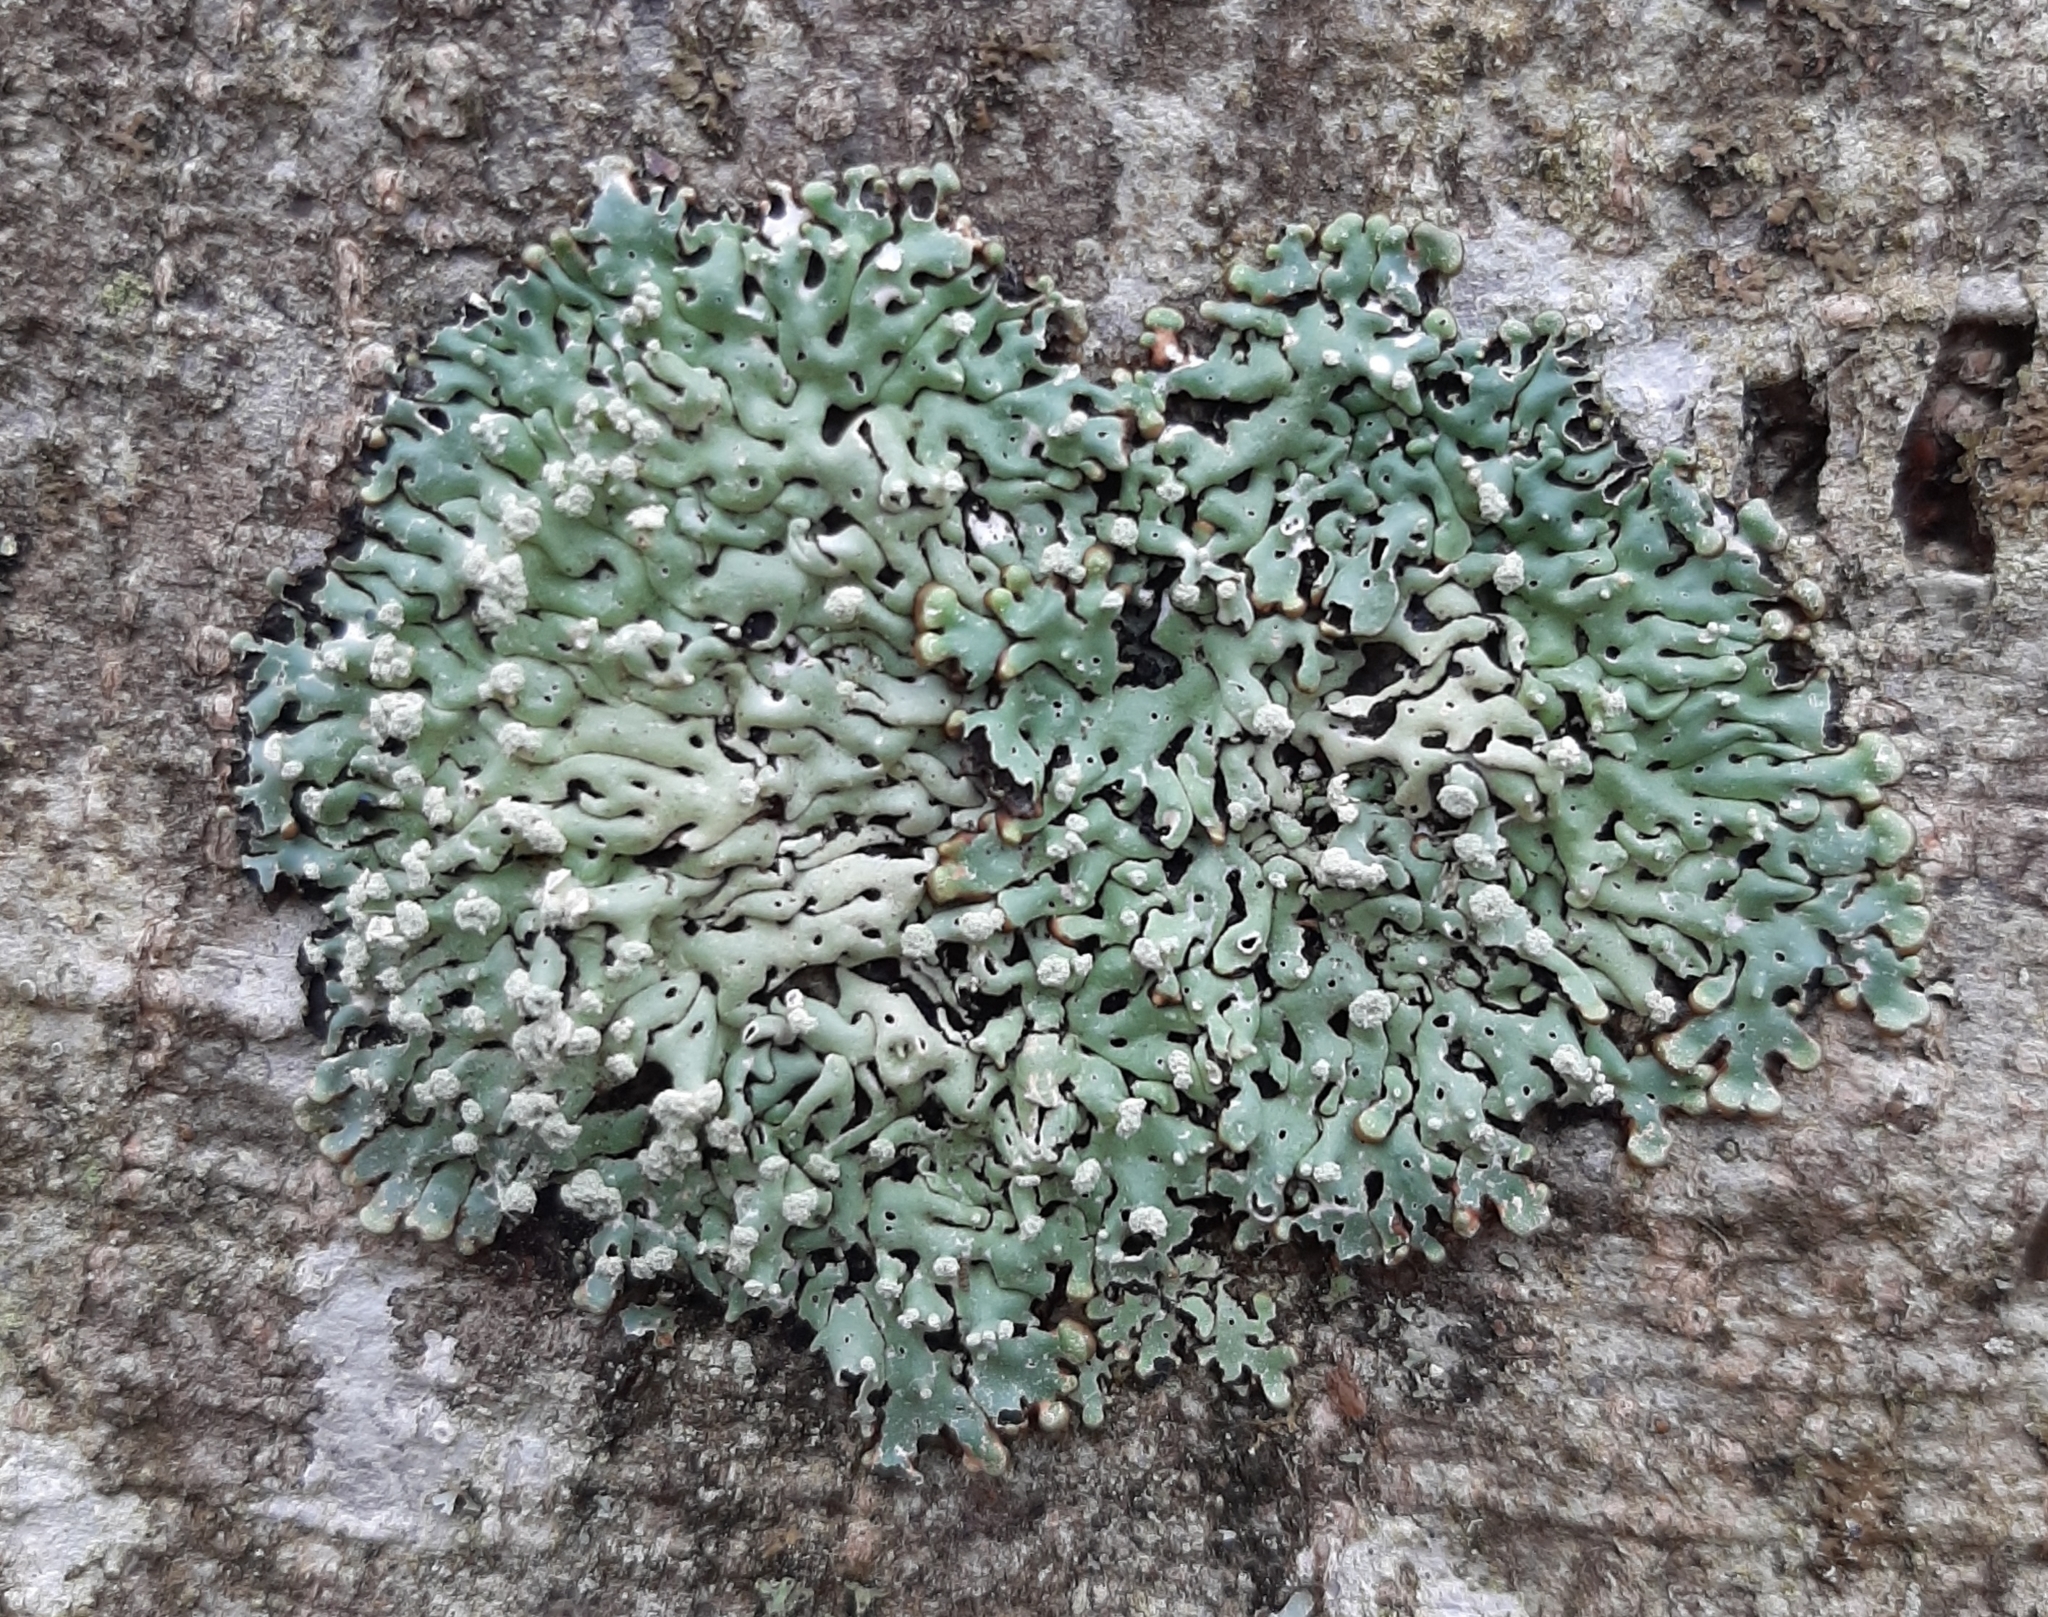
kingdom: Fungi
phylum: Ascomycota
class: Lecanoromycetes
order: Lecanorales
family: Parmeliaceae
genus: Menegazzia
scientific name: Menegazzia terebrata
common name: Magic treeflute lichen
